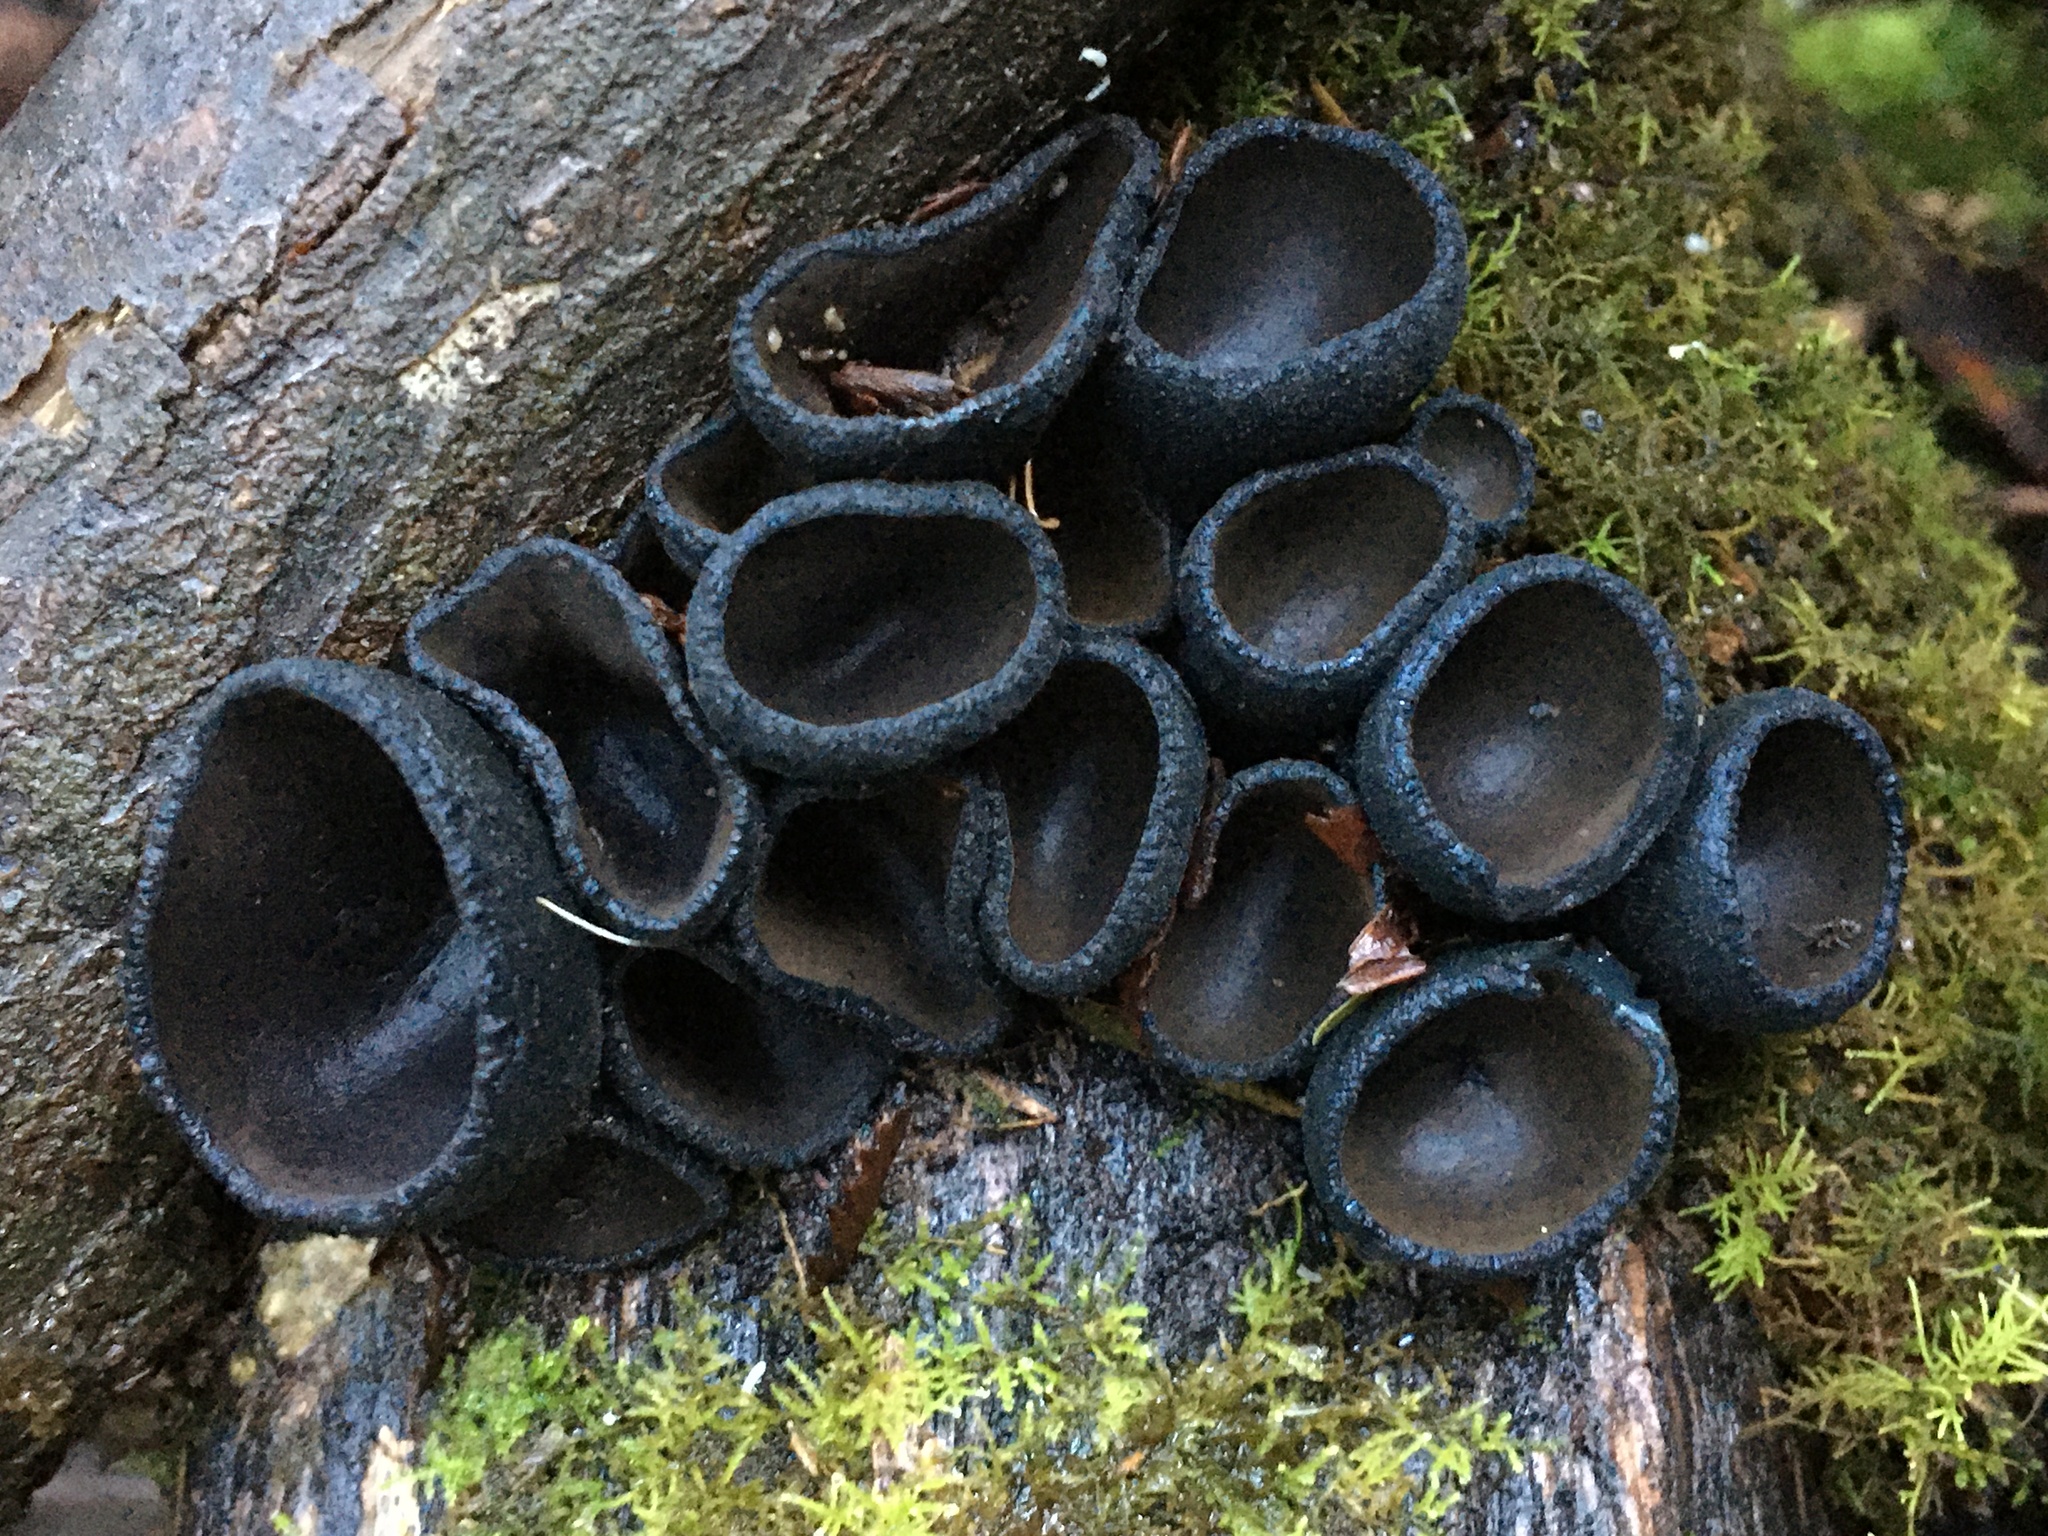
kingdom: Fungi
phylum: Ascomycota
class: Pezizomycetes
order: Pezizales
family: Sarcosomataceae
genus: Plectania
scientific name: Plectania campylospora
